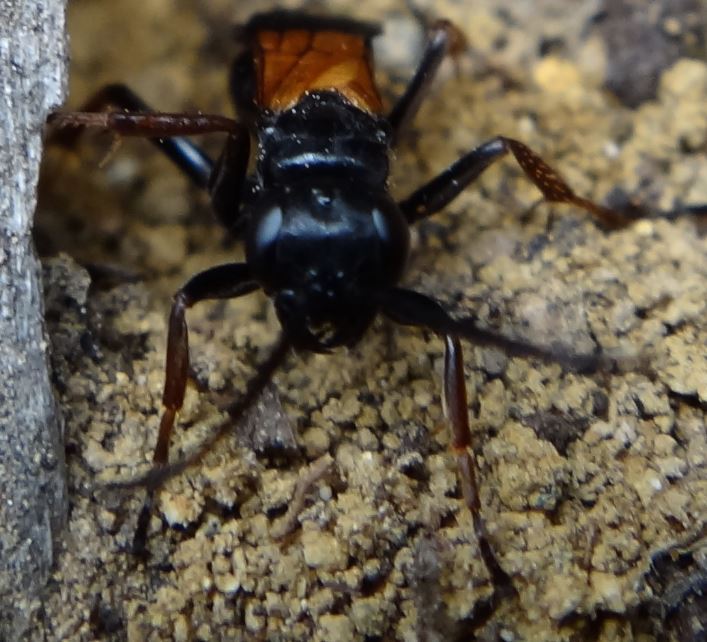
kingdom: Animalia
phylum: Arthropoda
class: Insecta
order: Hymenoptera
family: Pompilidae
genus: Priocnemis
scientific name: Priocnemis conformis
